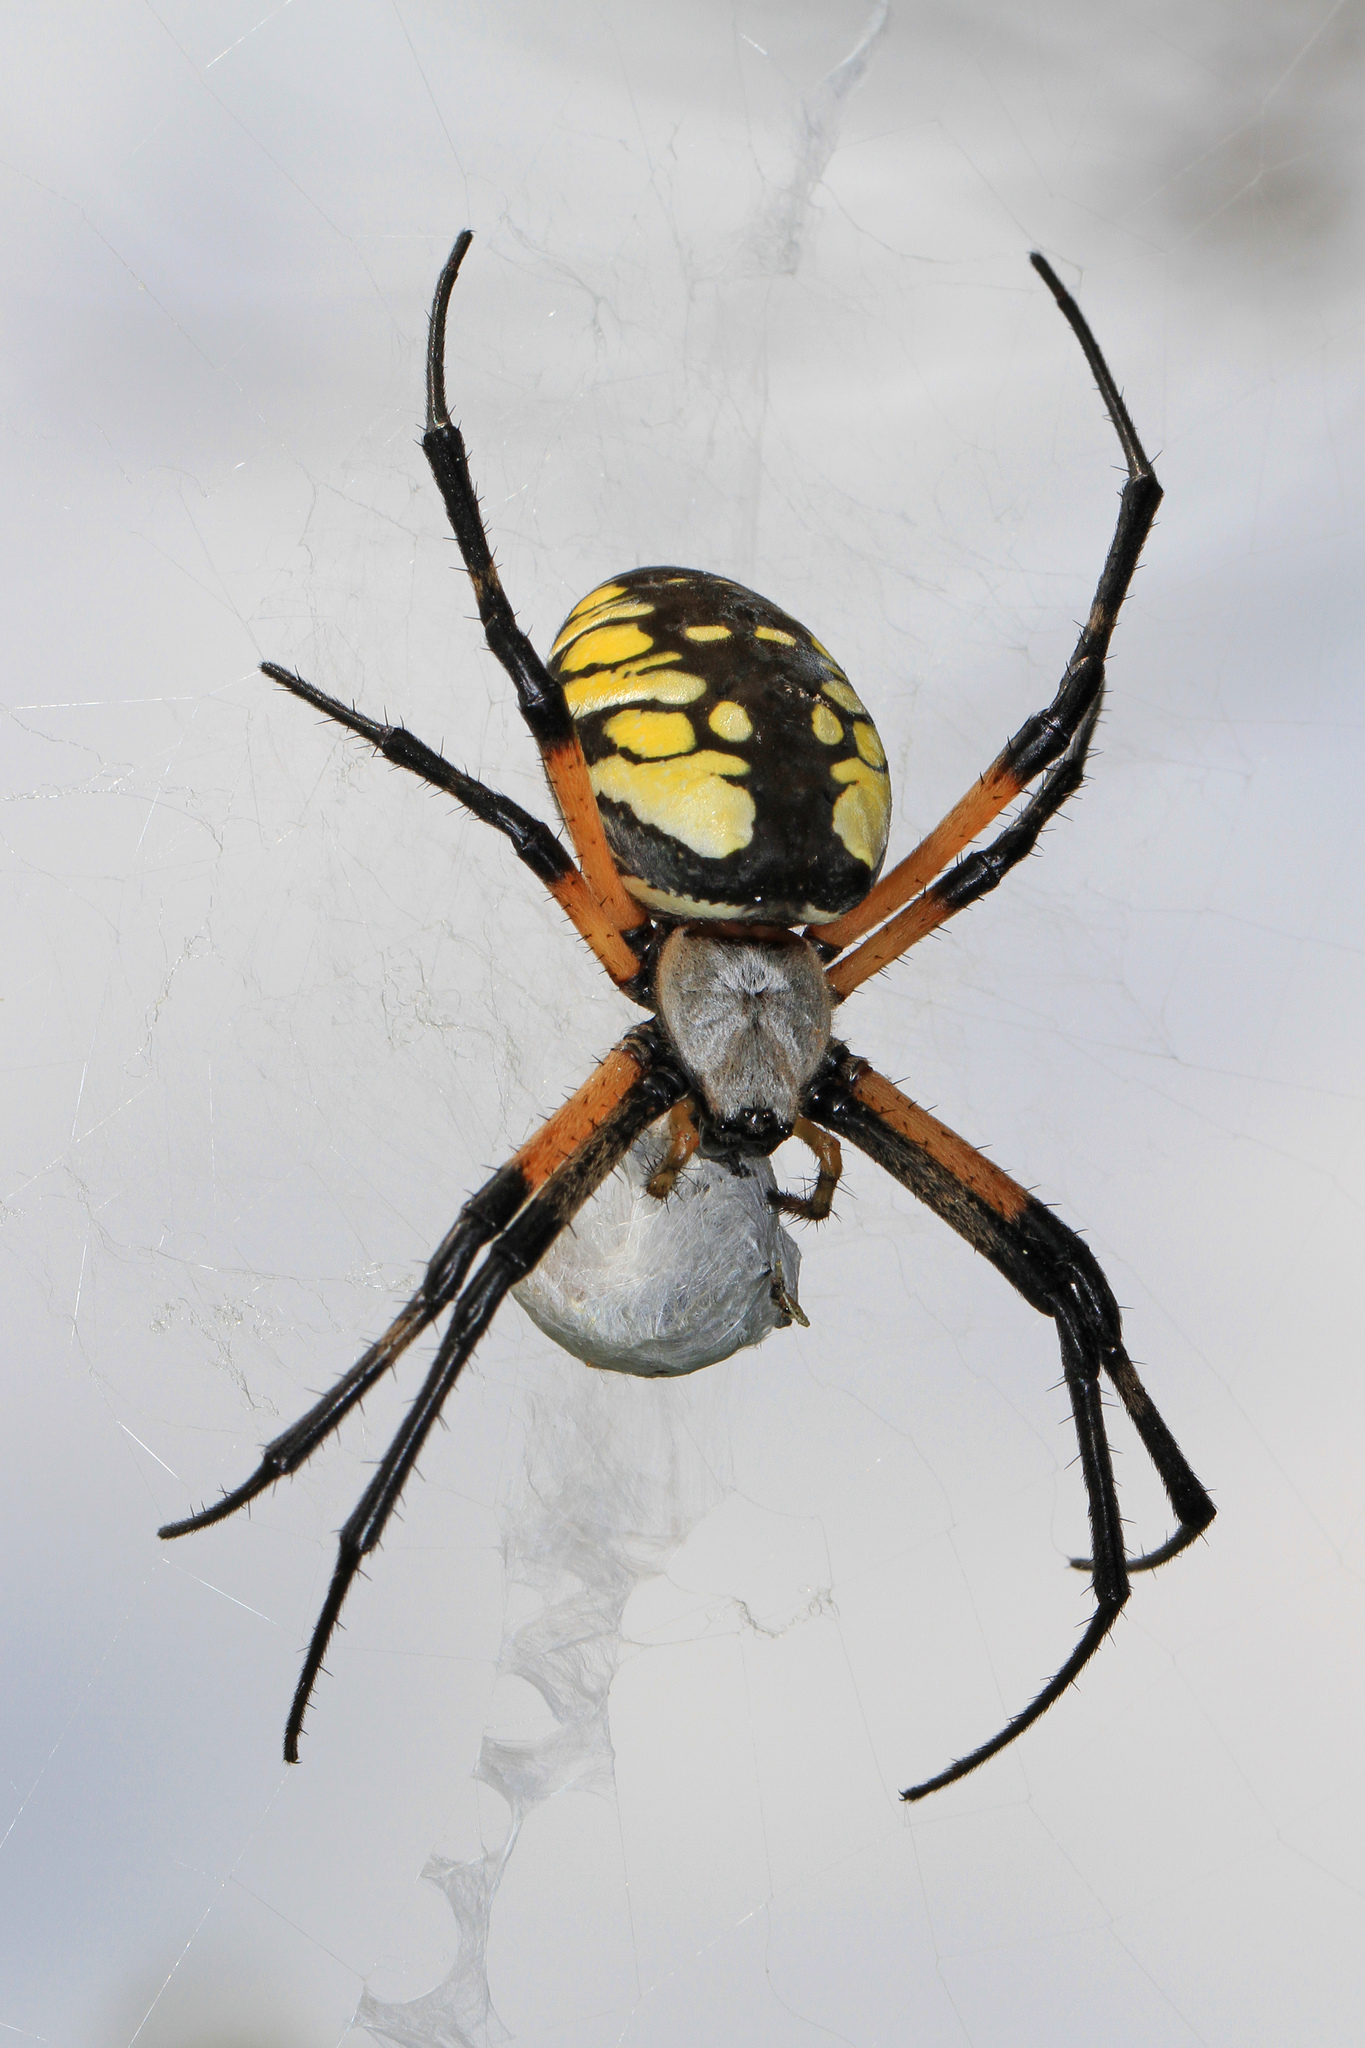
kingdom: Animalia
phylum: Arthropoda
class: Arachnida
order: Araneae
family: Araneidae
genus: Argiope
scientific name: Argiope aurantia
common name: Orb weavers
